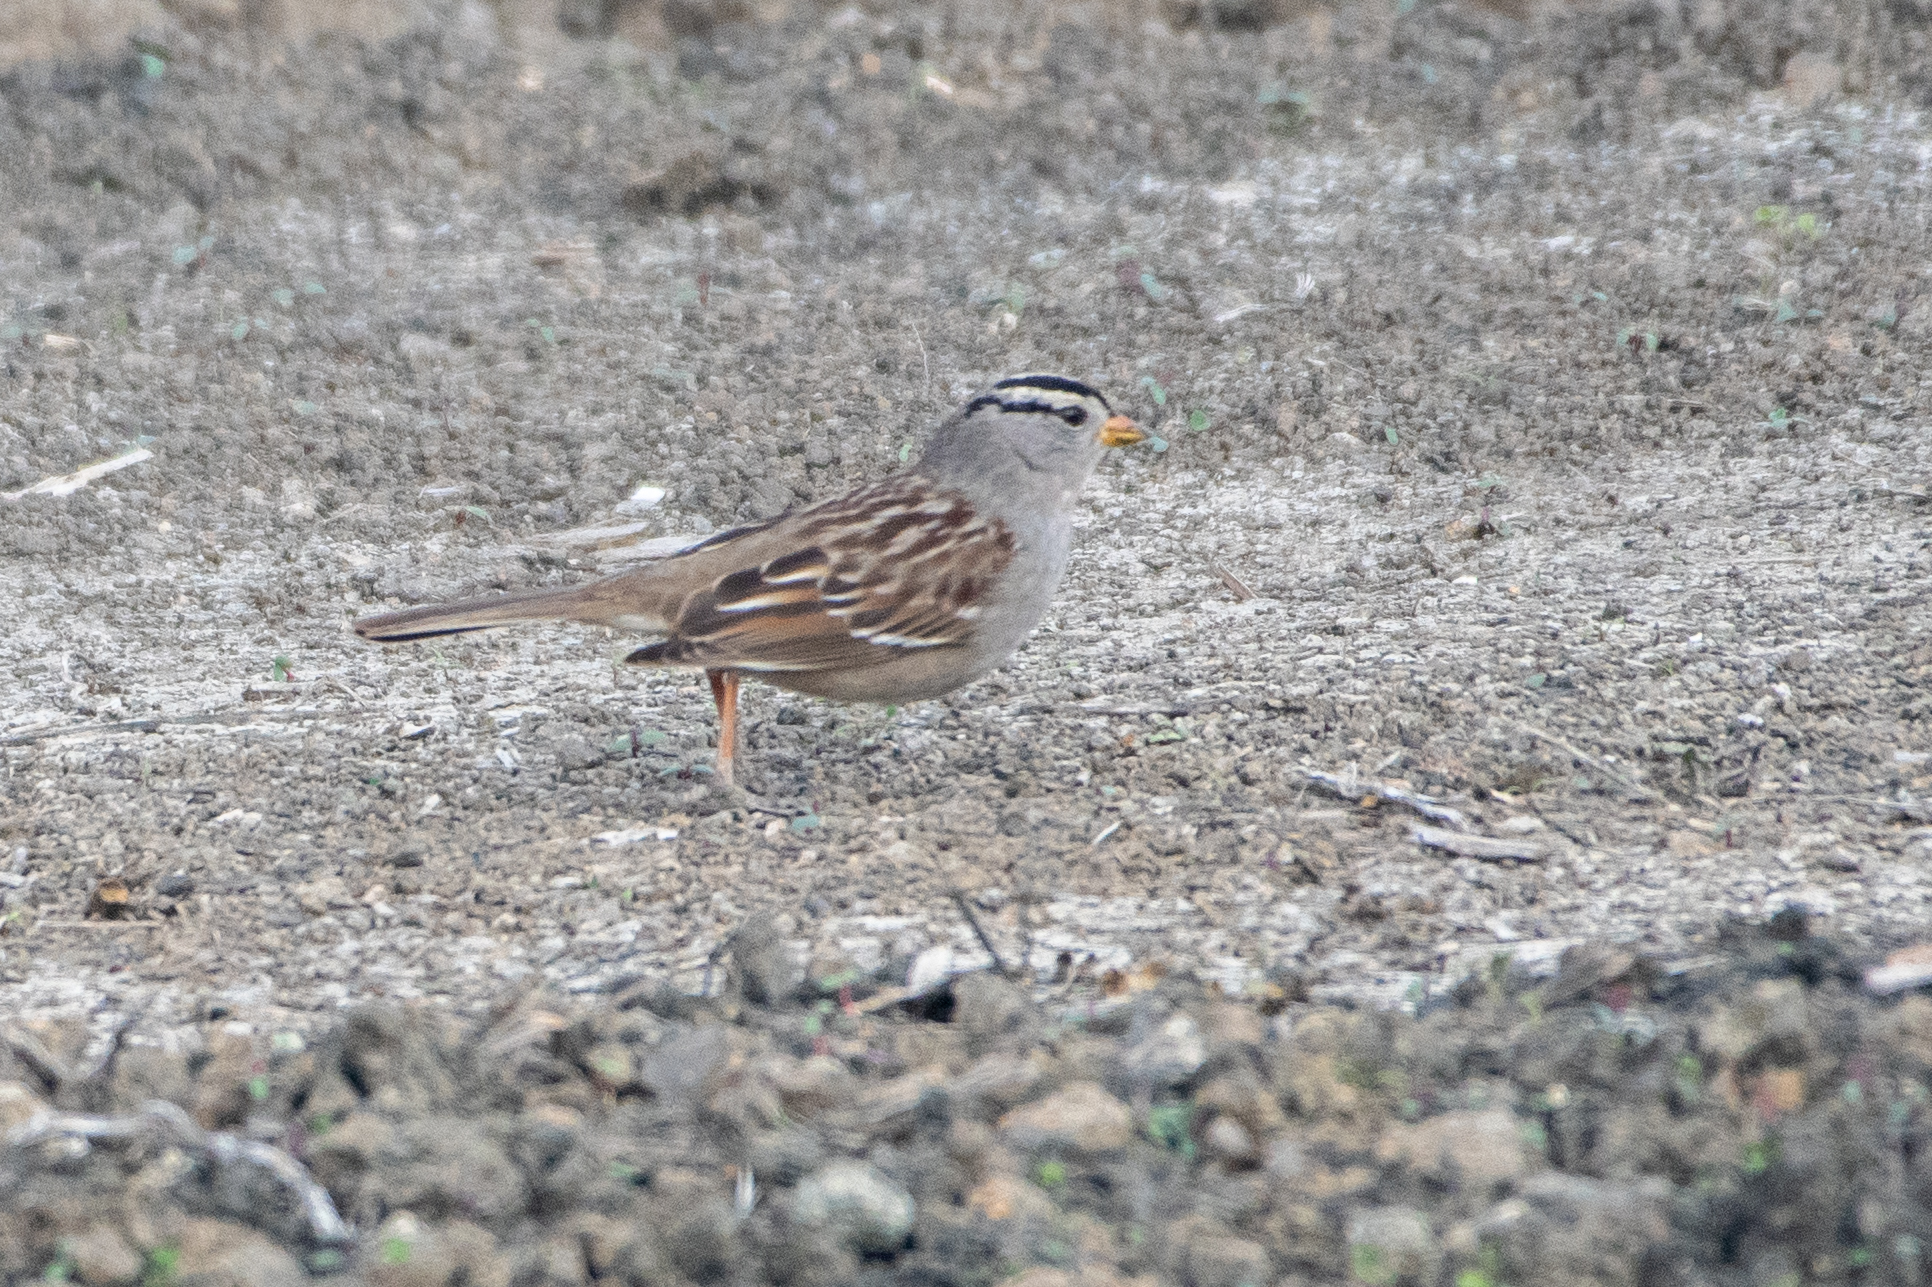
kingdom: Animalia
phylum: Chordata
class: Aves
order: Passeriformes
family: Passerellidae
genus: Zonotrichia
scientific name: Zonotrichia leucophrys
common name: White-crowned sparrow
